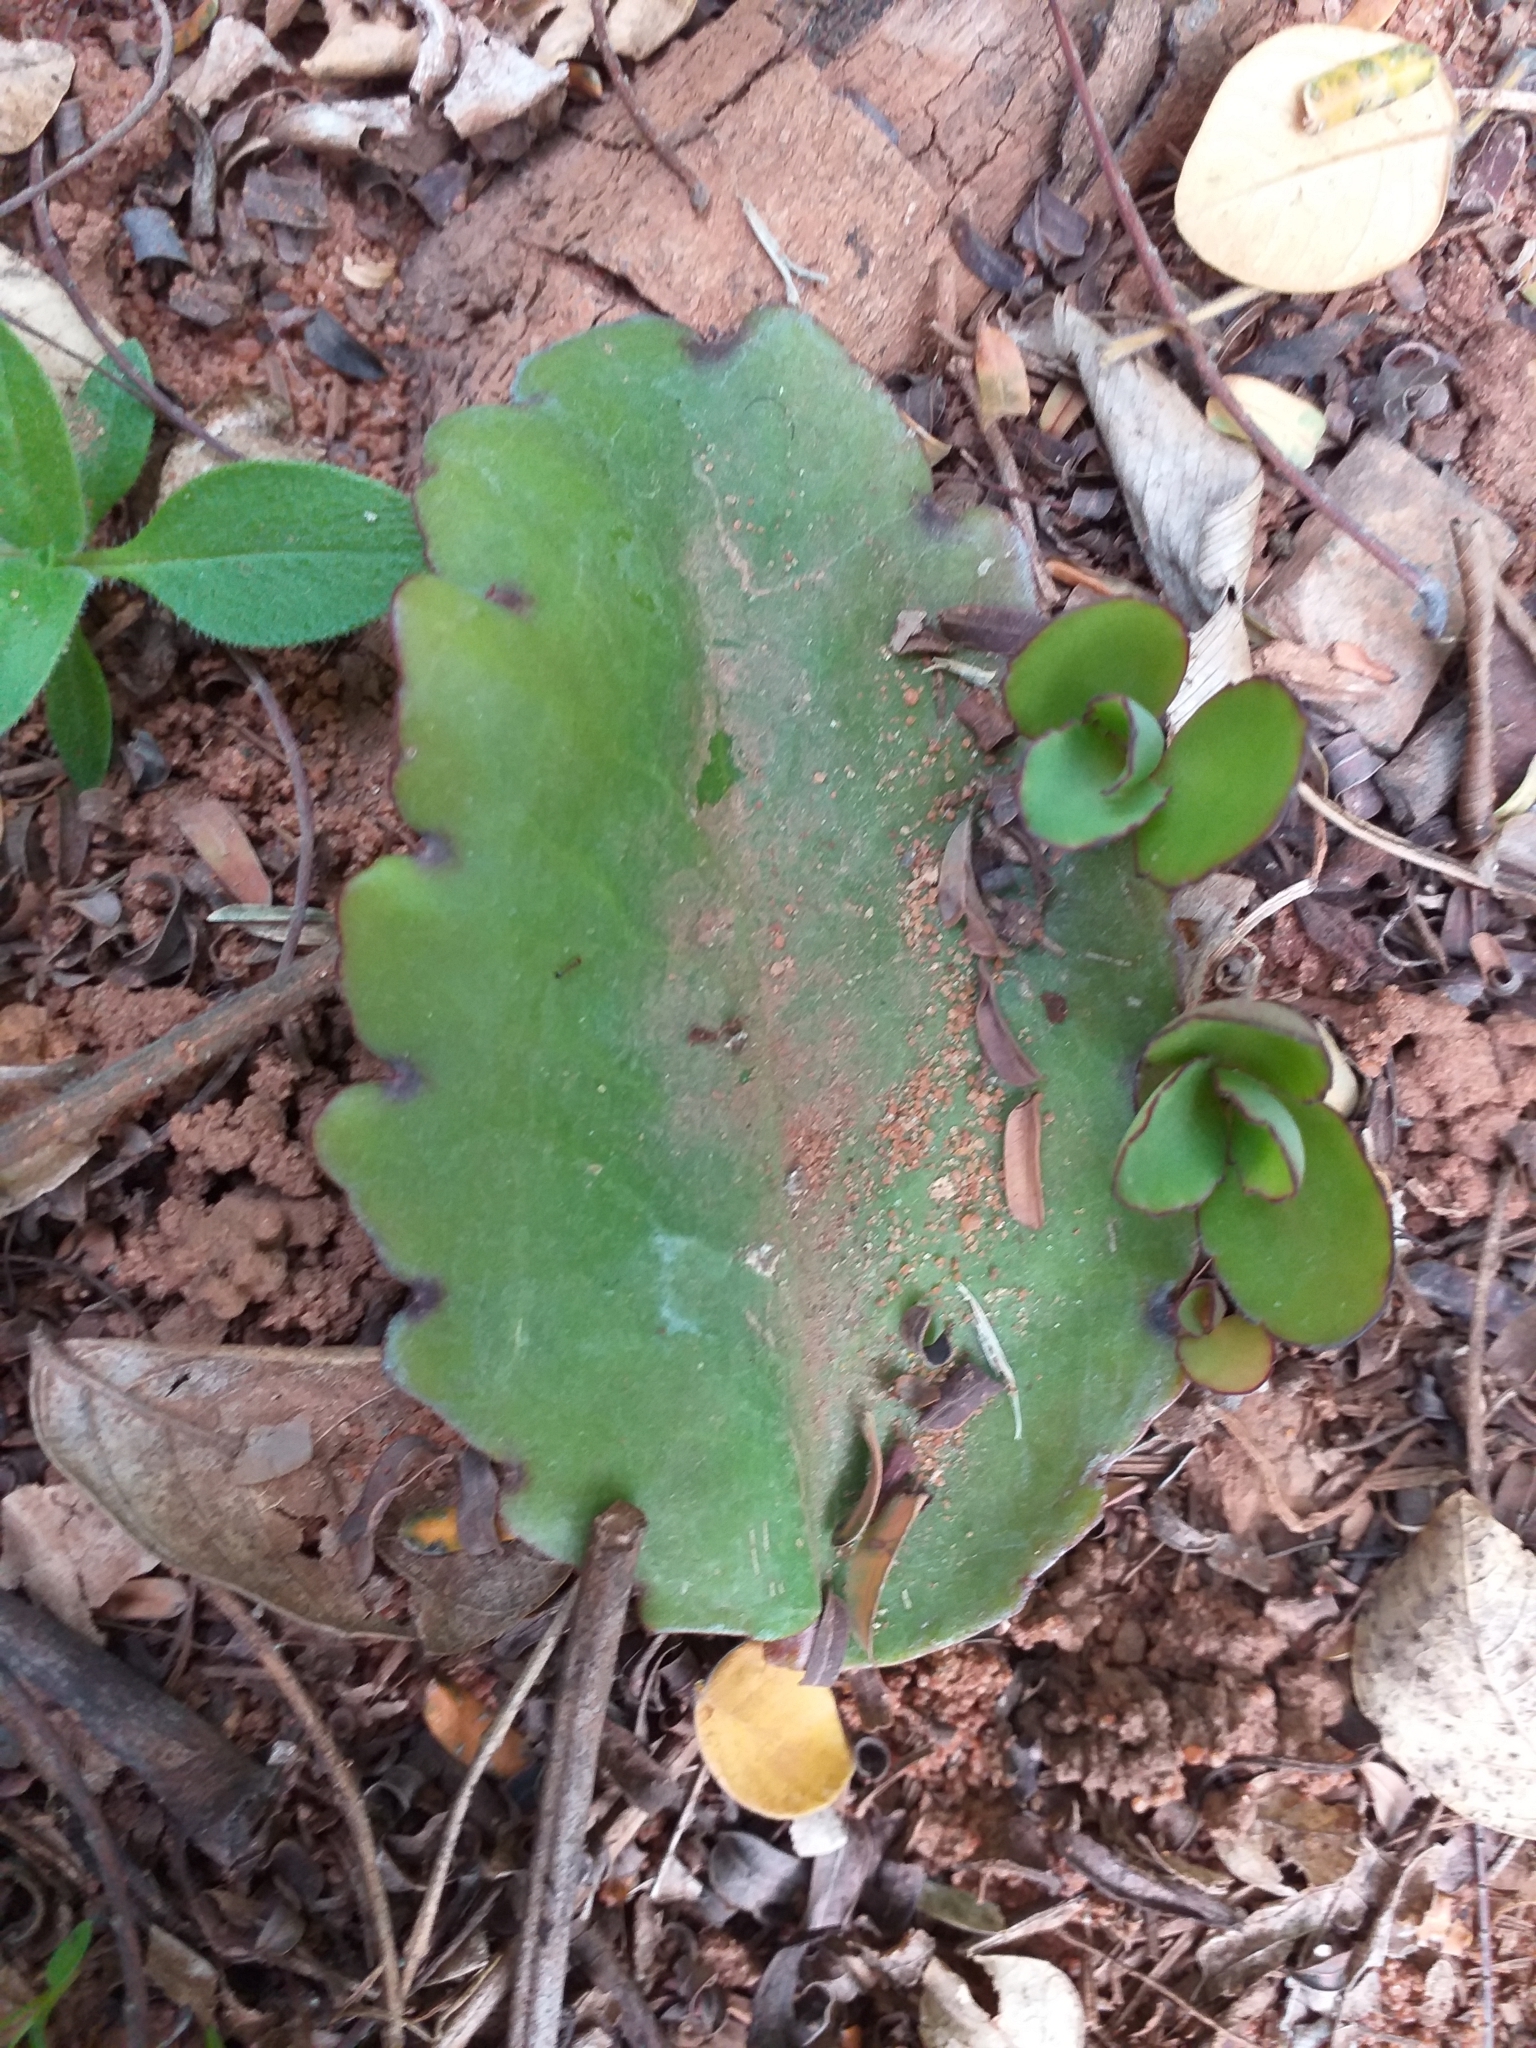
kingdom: Plantae
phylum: Tracheophyta
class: Magnoliopsida
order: Saxifragales
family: Crassulaceae
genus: Kalanchoe
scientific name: Kalanchoe pinnata
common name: Cathedral bells
